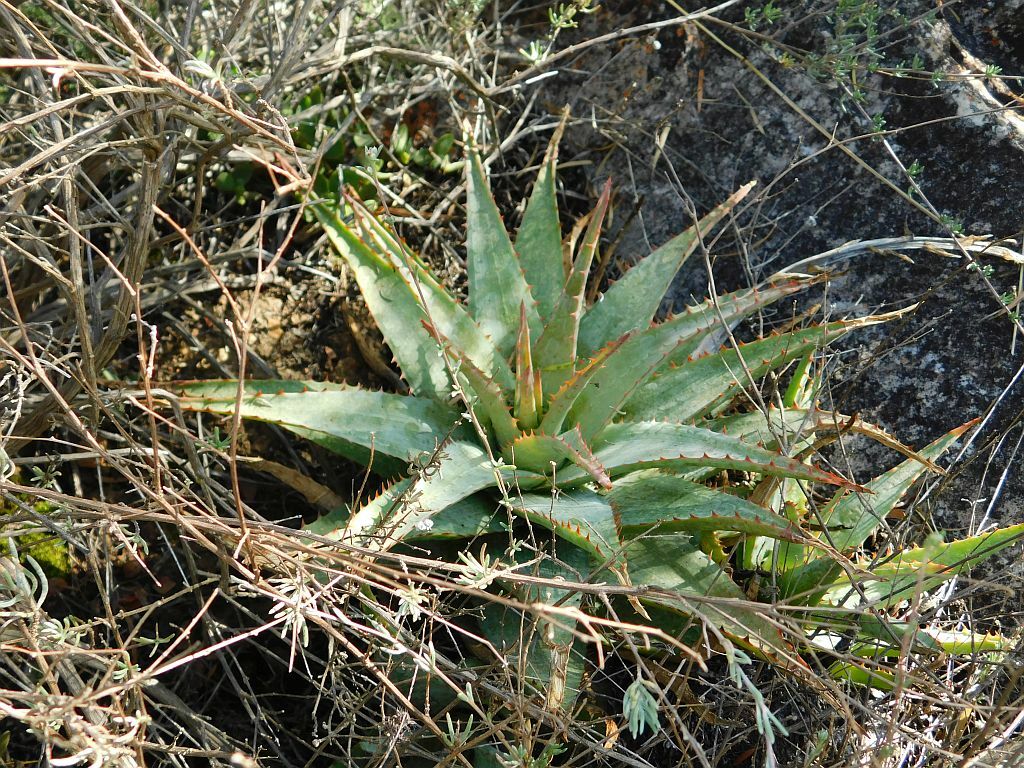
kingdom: Plantae
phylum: Tracheophyta
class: Liliopsida
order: Asparagales
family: Asphodelaceae
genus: Aloe
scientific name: Aloe glauca
